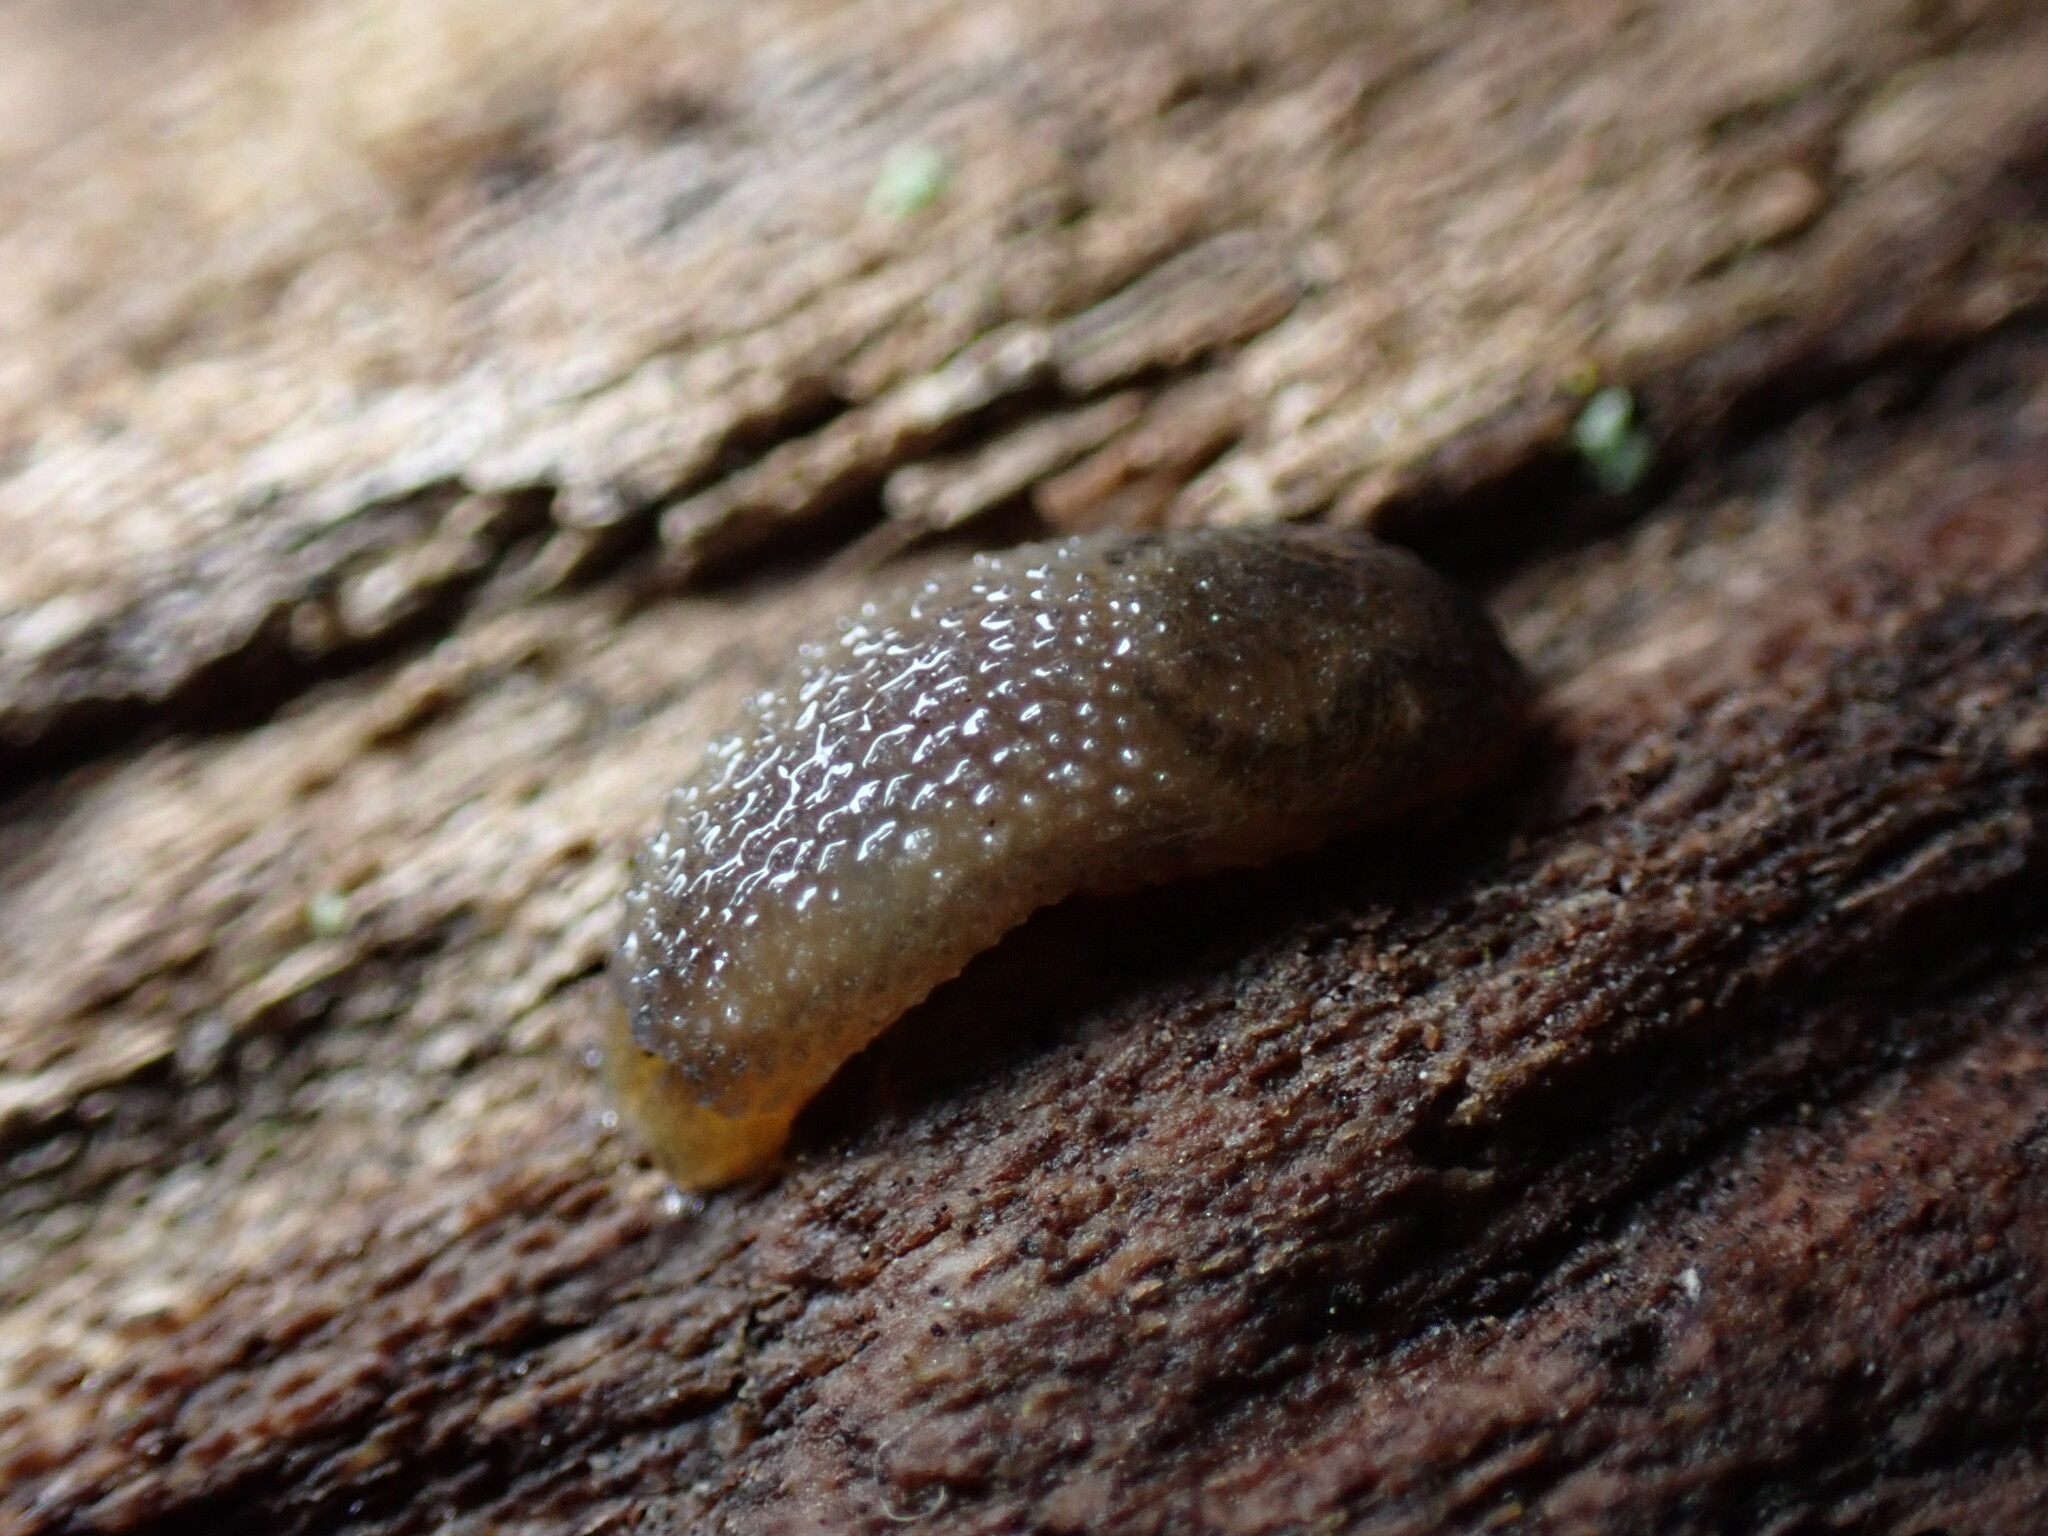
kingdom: Animalia
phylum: Mollusca
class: Gastropoda
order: Stylommatophora
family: Arionidae
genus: Arion
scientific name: Arion intermedius
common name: Hedgehog slug
